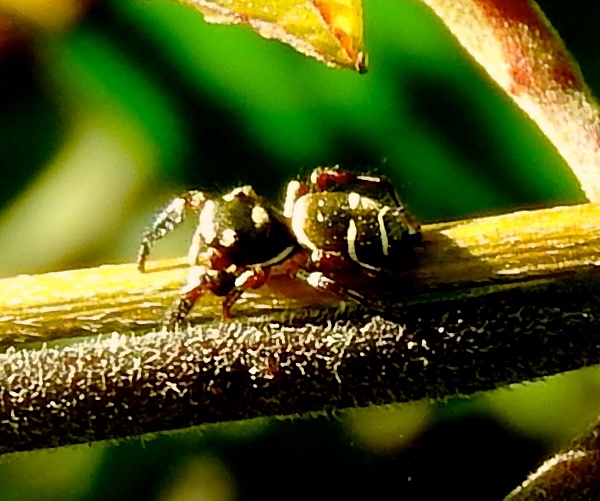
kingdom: Animalia
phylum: Arthropoda
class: Arachnida
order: Araneae
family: Salticidae
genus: Sassacus
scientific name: Sassacus
